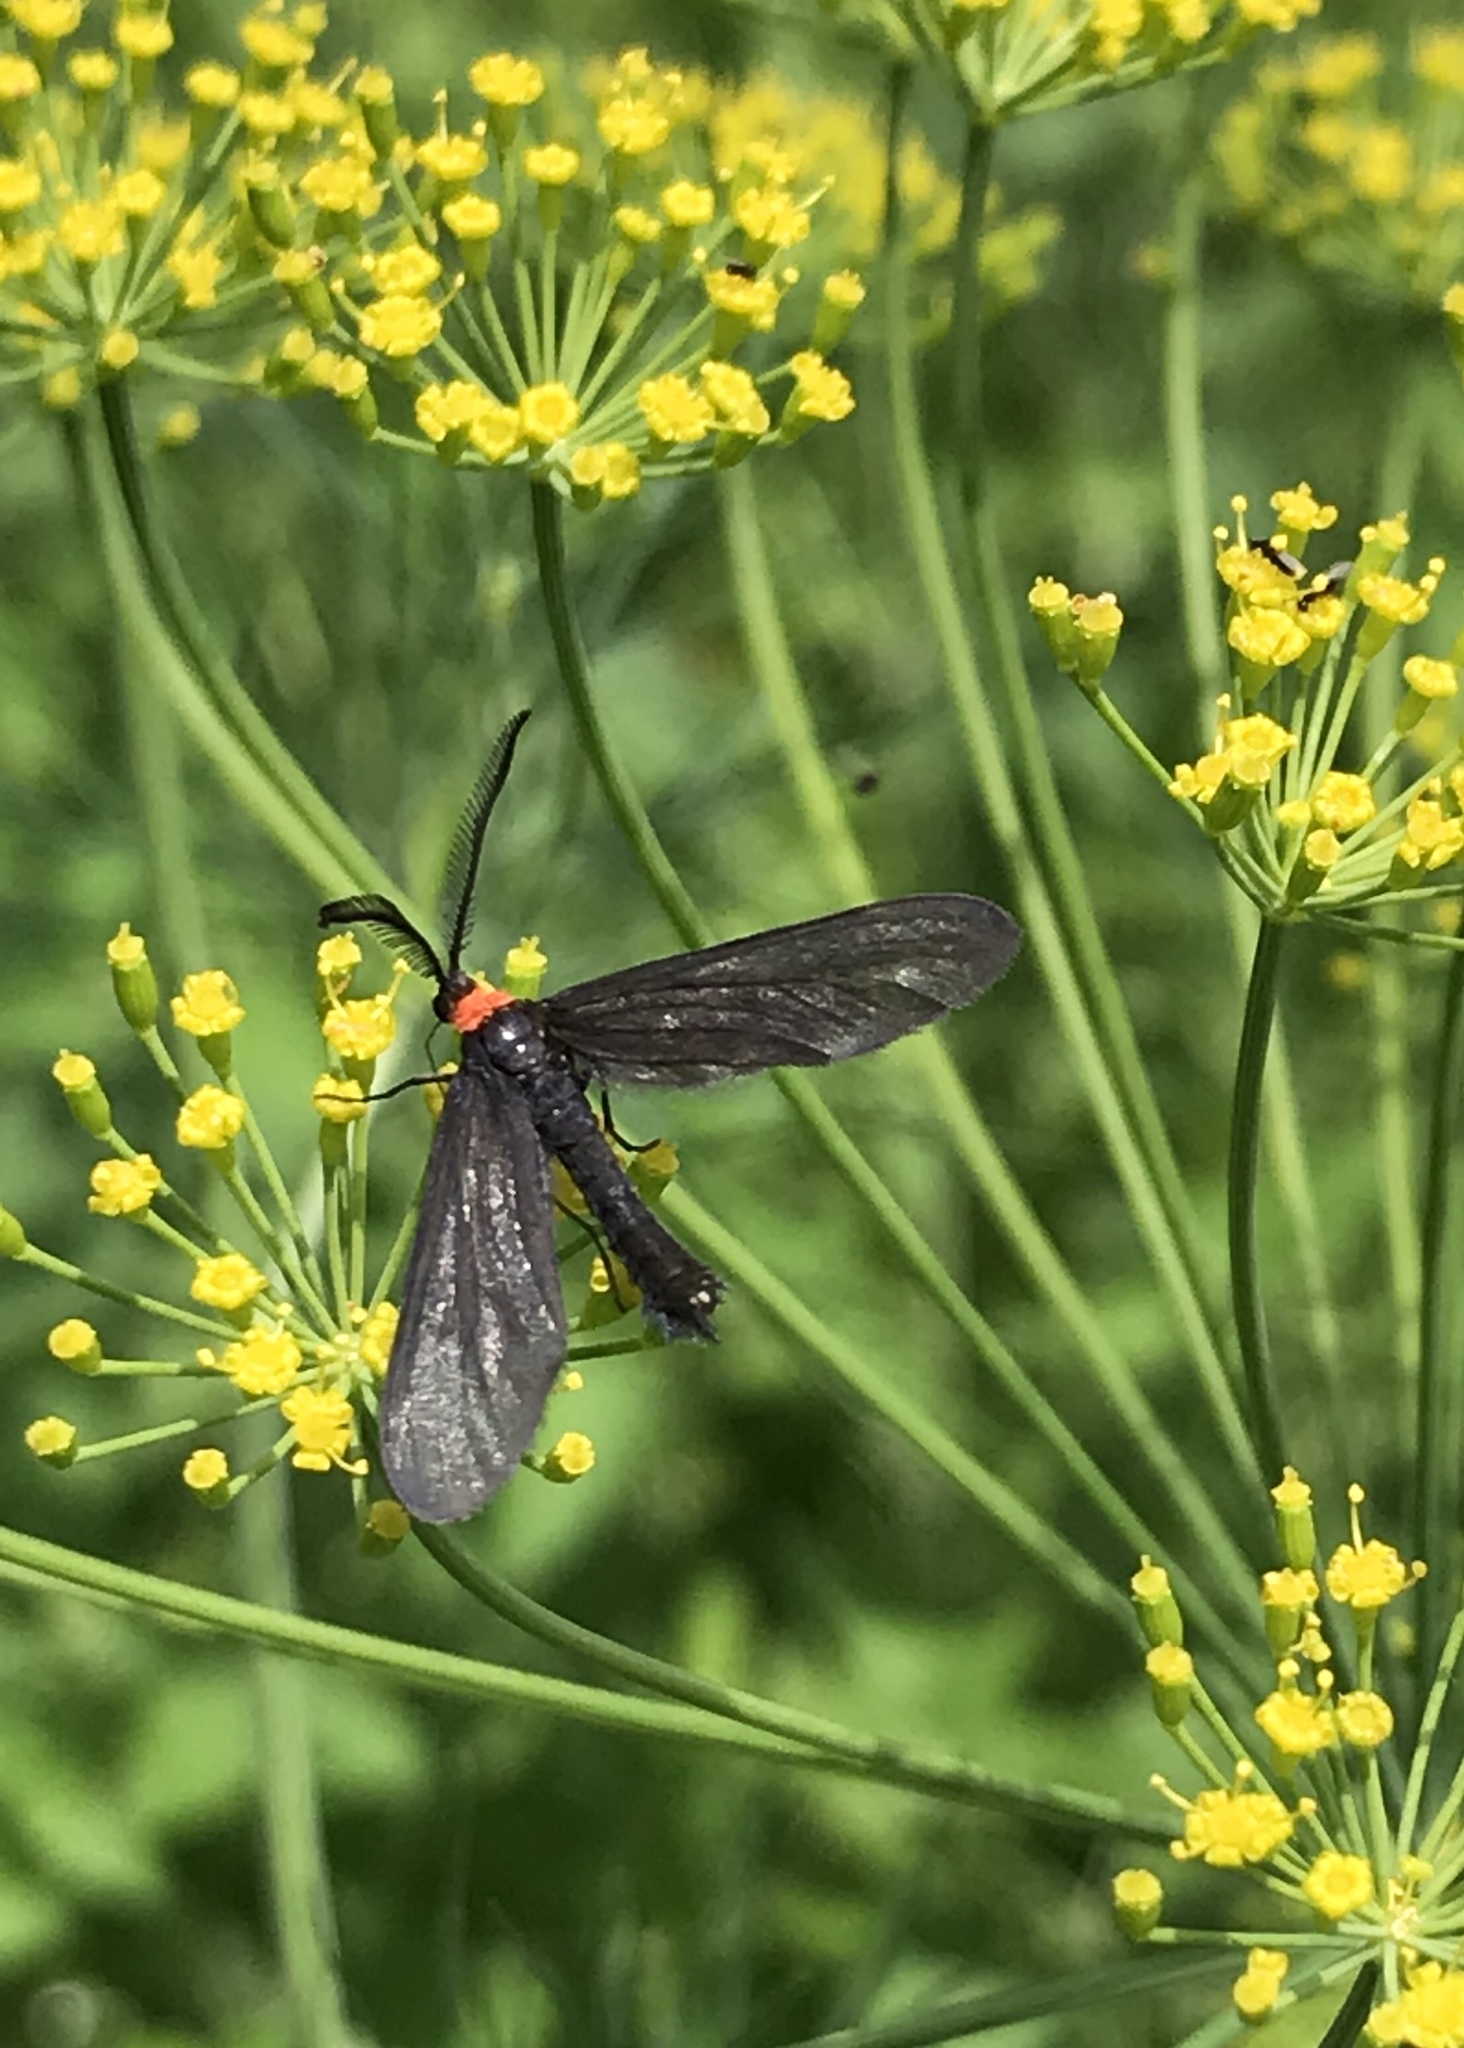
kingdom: Animalia
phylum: Arthropoda
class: Insecta
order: Lepidoptera
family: Zygaenidae
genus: Harrisina
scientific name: Harrisina americana
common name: Grapeleaf skeletonizer moth
